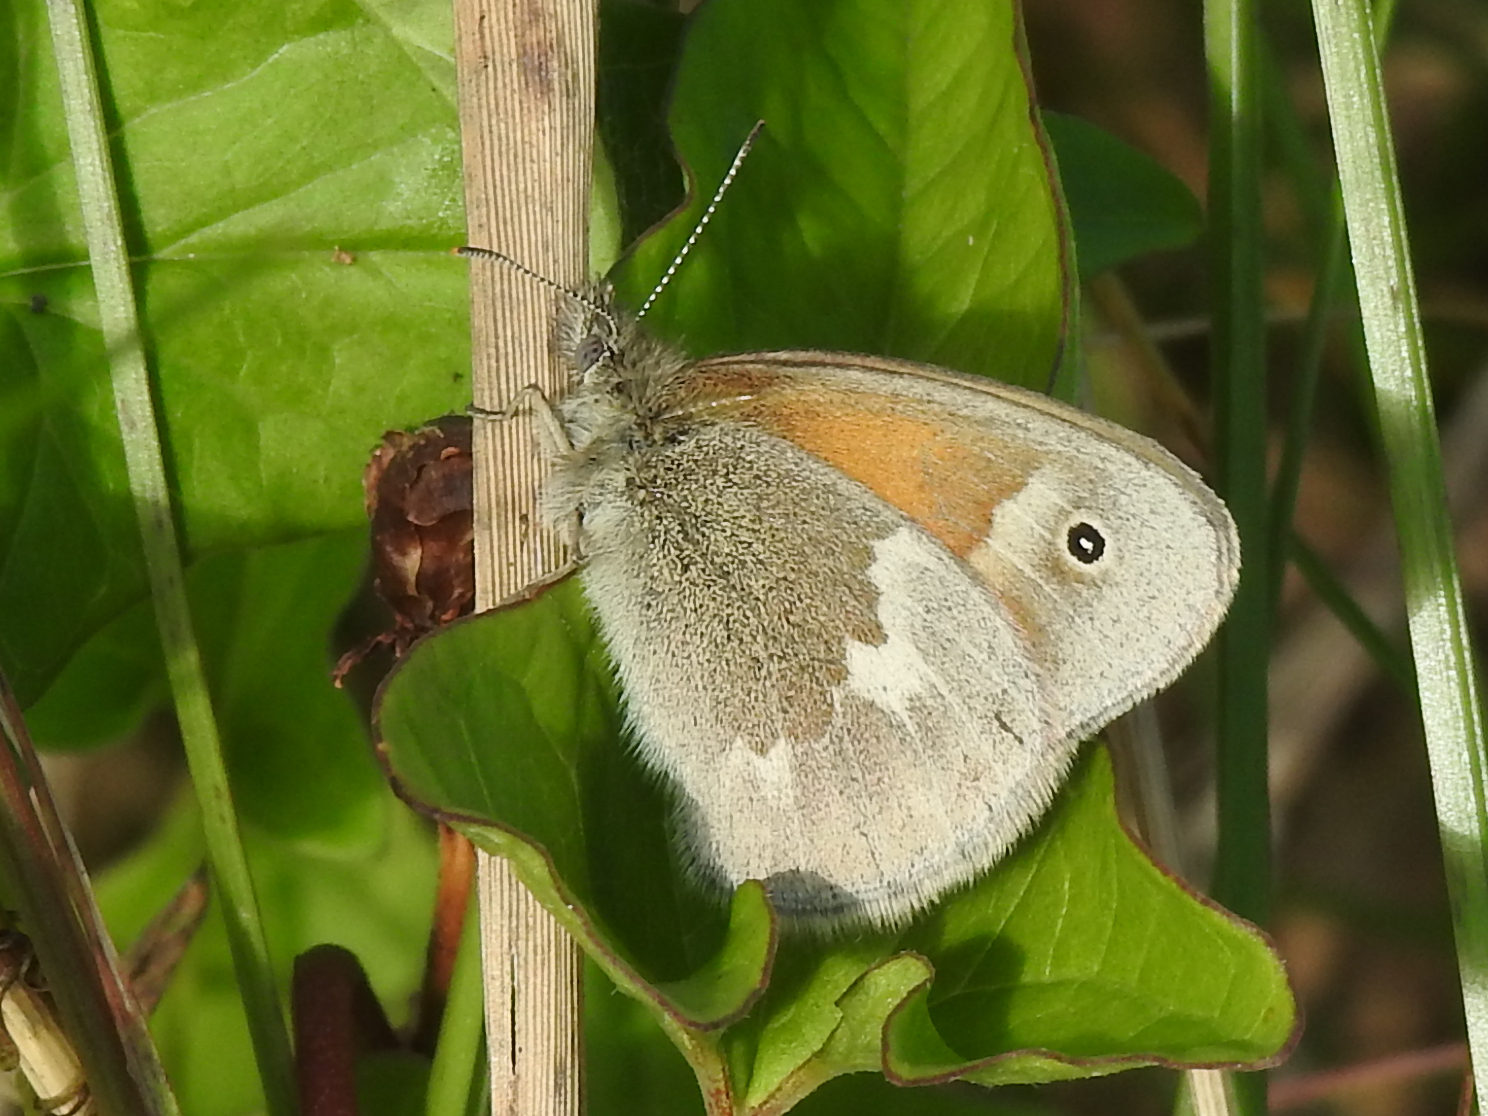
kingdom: Animalia
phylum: Arthropoda
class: Insecta
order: Lepidoptera
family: Nymphalidae
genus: Coenonympha
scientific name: Coenonympha california
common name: Common ringlet
